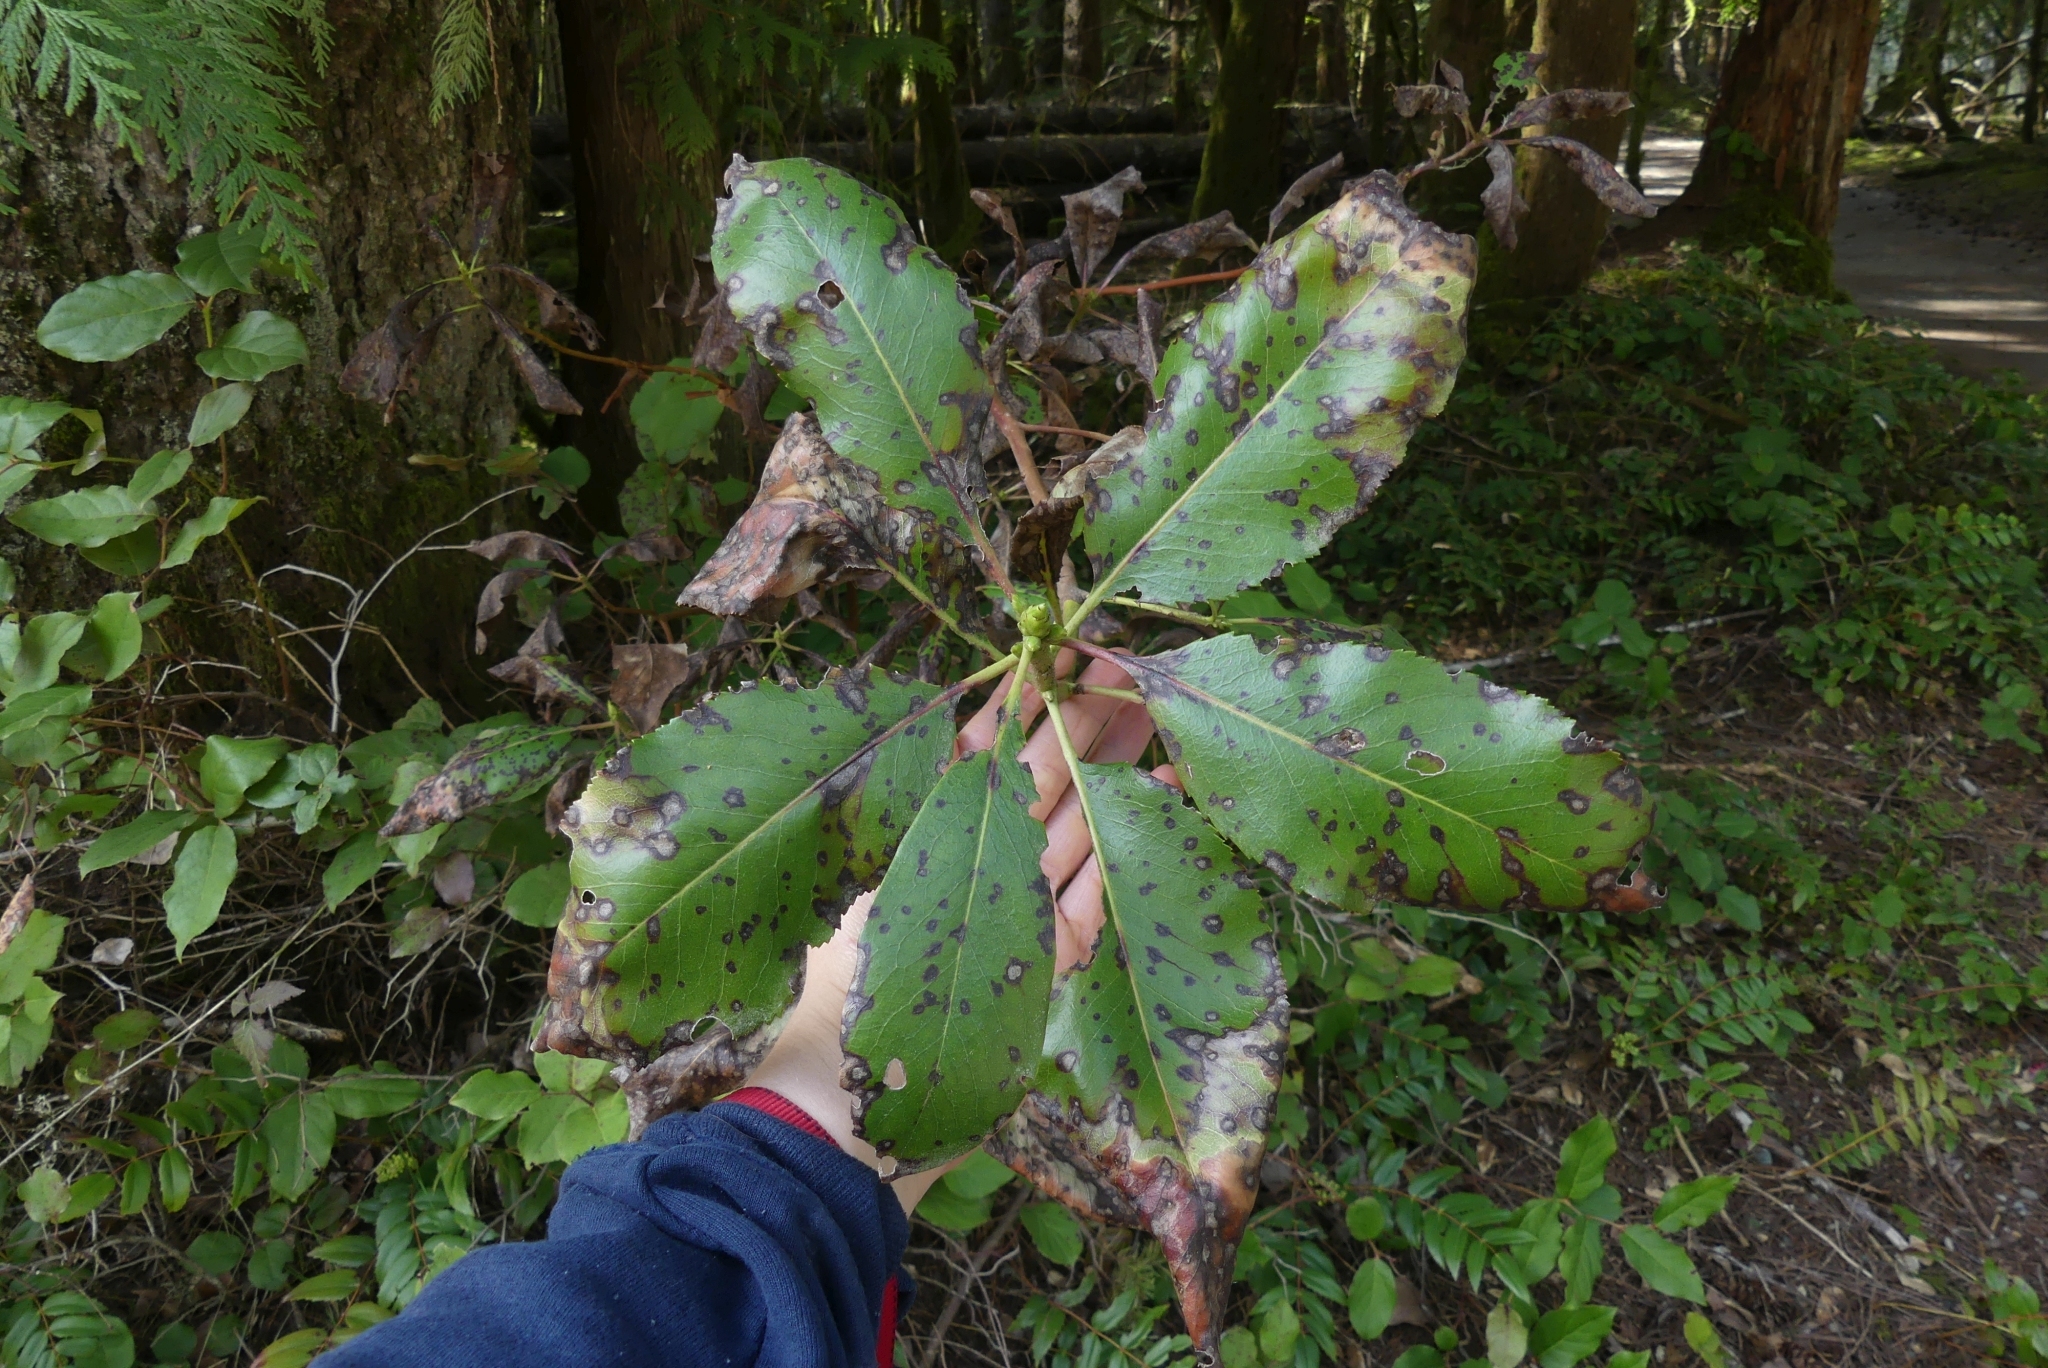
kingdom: Plantae
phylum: Tracheophyta
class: Magnoliopsida
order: Ericales
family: Ericaceae
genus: Arbutus
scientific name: Arbutus menziesii
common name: Pacific madrone
